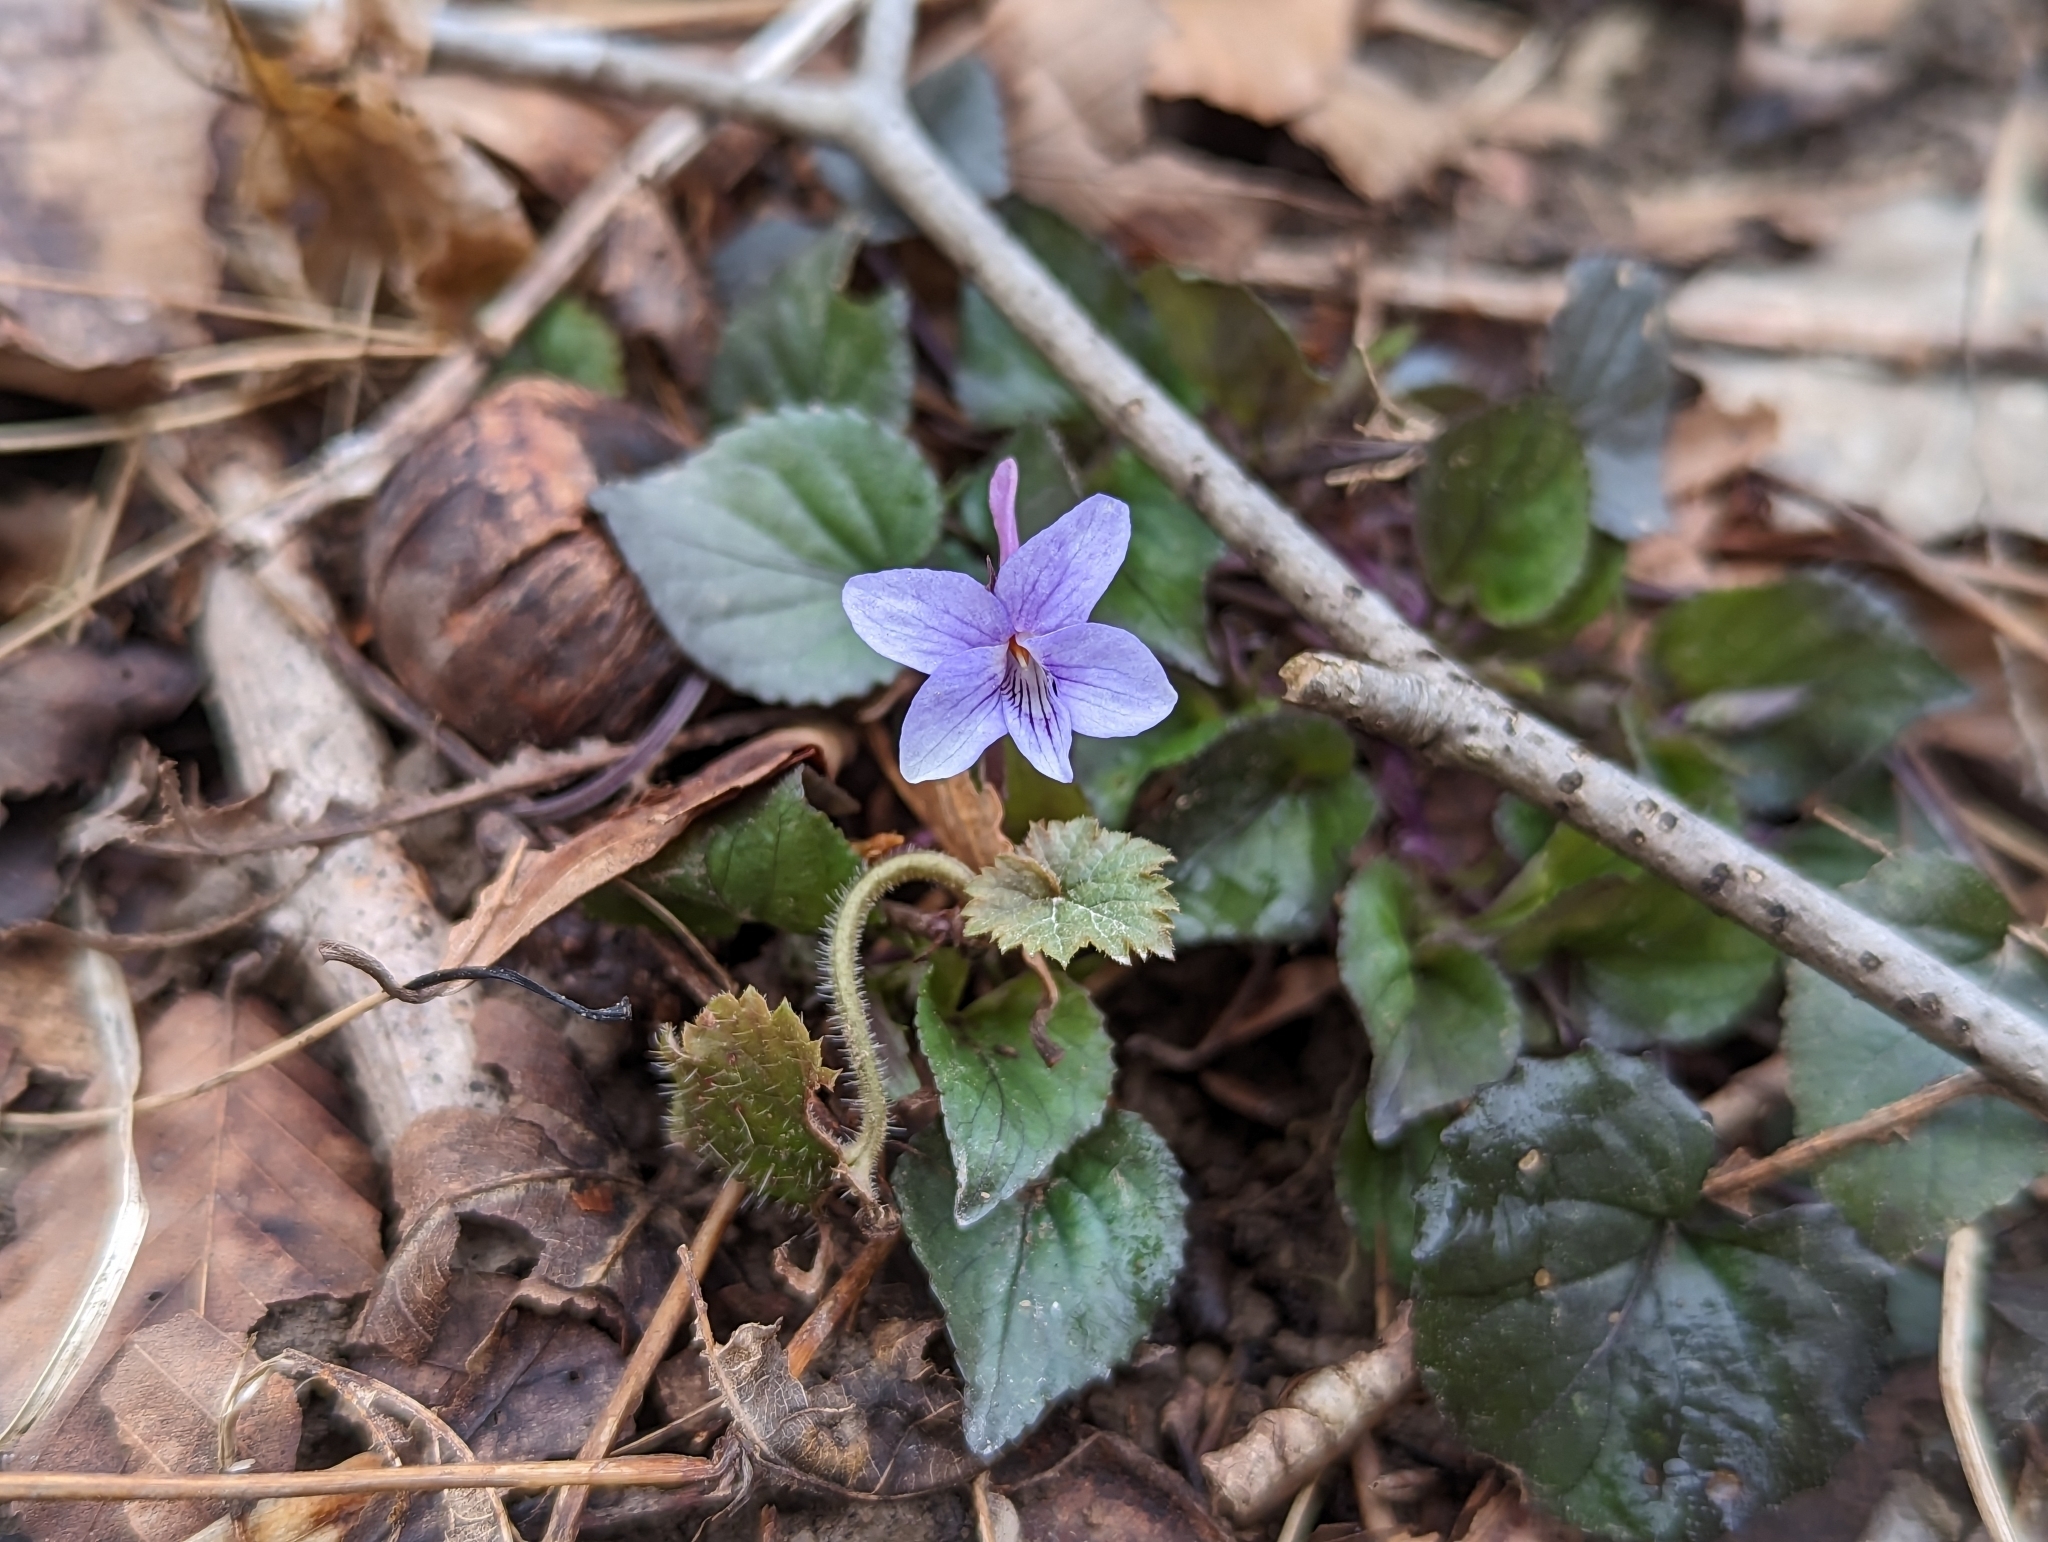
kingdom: Plantae
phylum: Tracheophyta
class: Magnoliopsida
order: Malpighiales
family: Violaceae
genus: Viola
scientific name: Viola rostrata
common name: Long-spur violet
